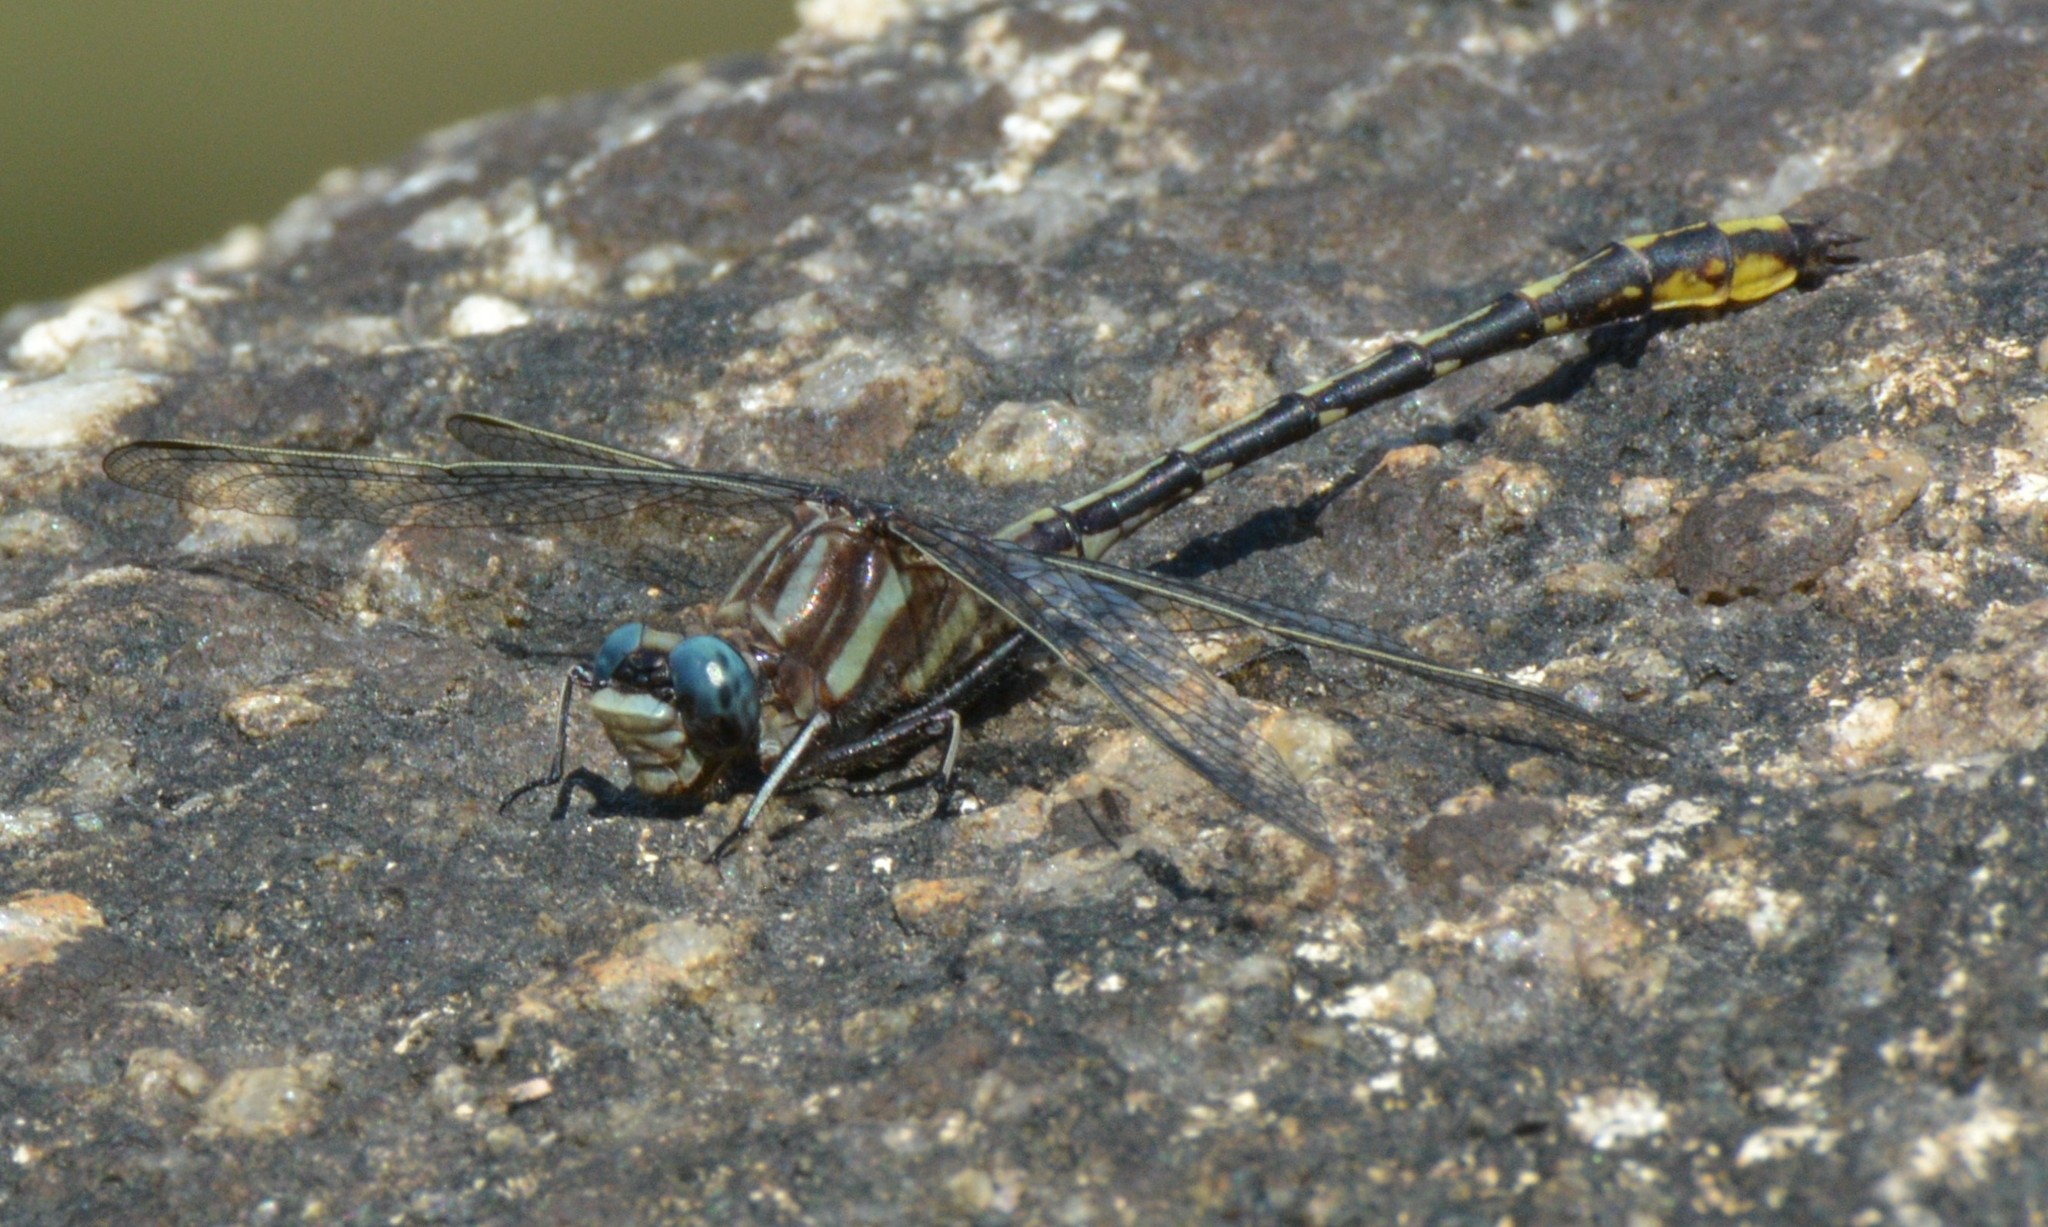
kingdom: Animalia
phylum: Arthropoda
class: Insecta
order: Odonata
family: Gomphidae
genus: Phanogomphus
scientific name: Phanogomphus exilis
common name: Lancet clubtail
